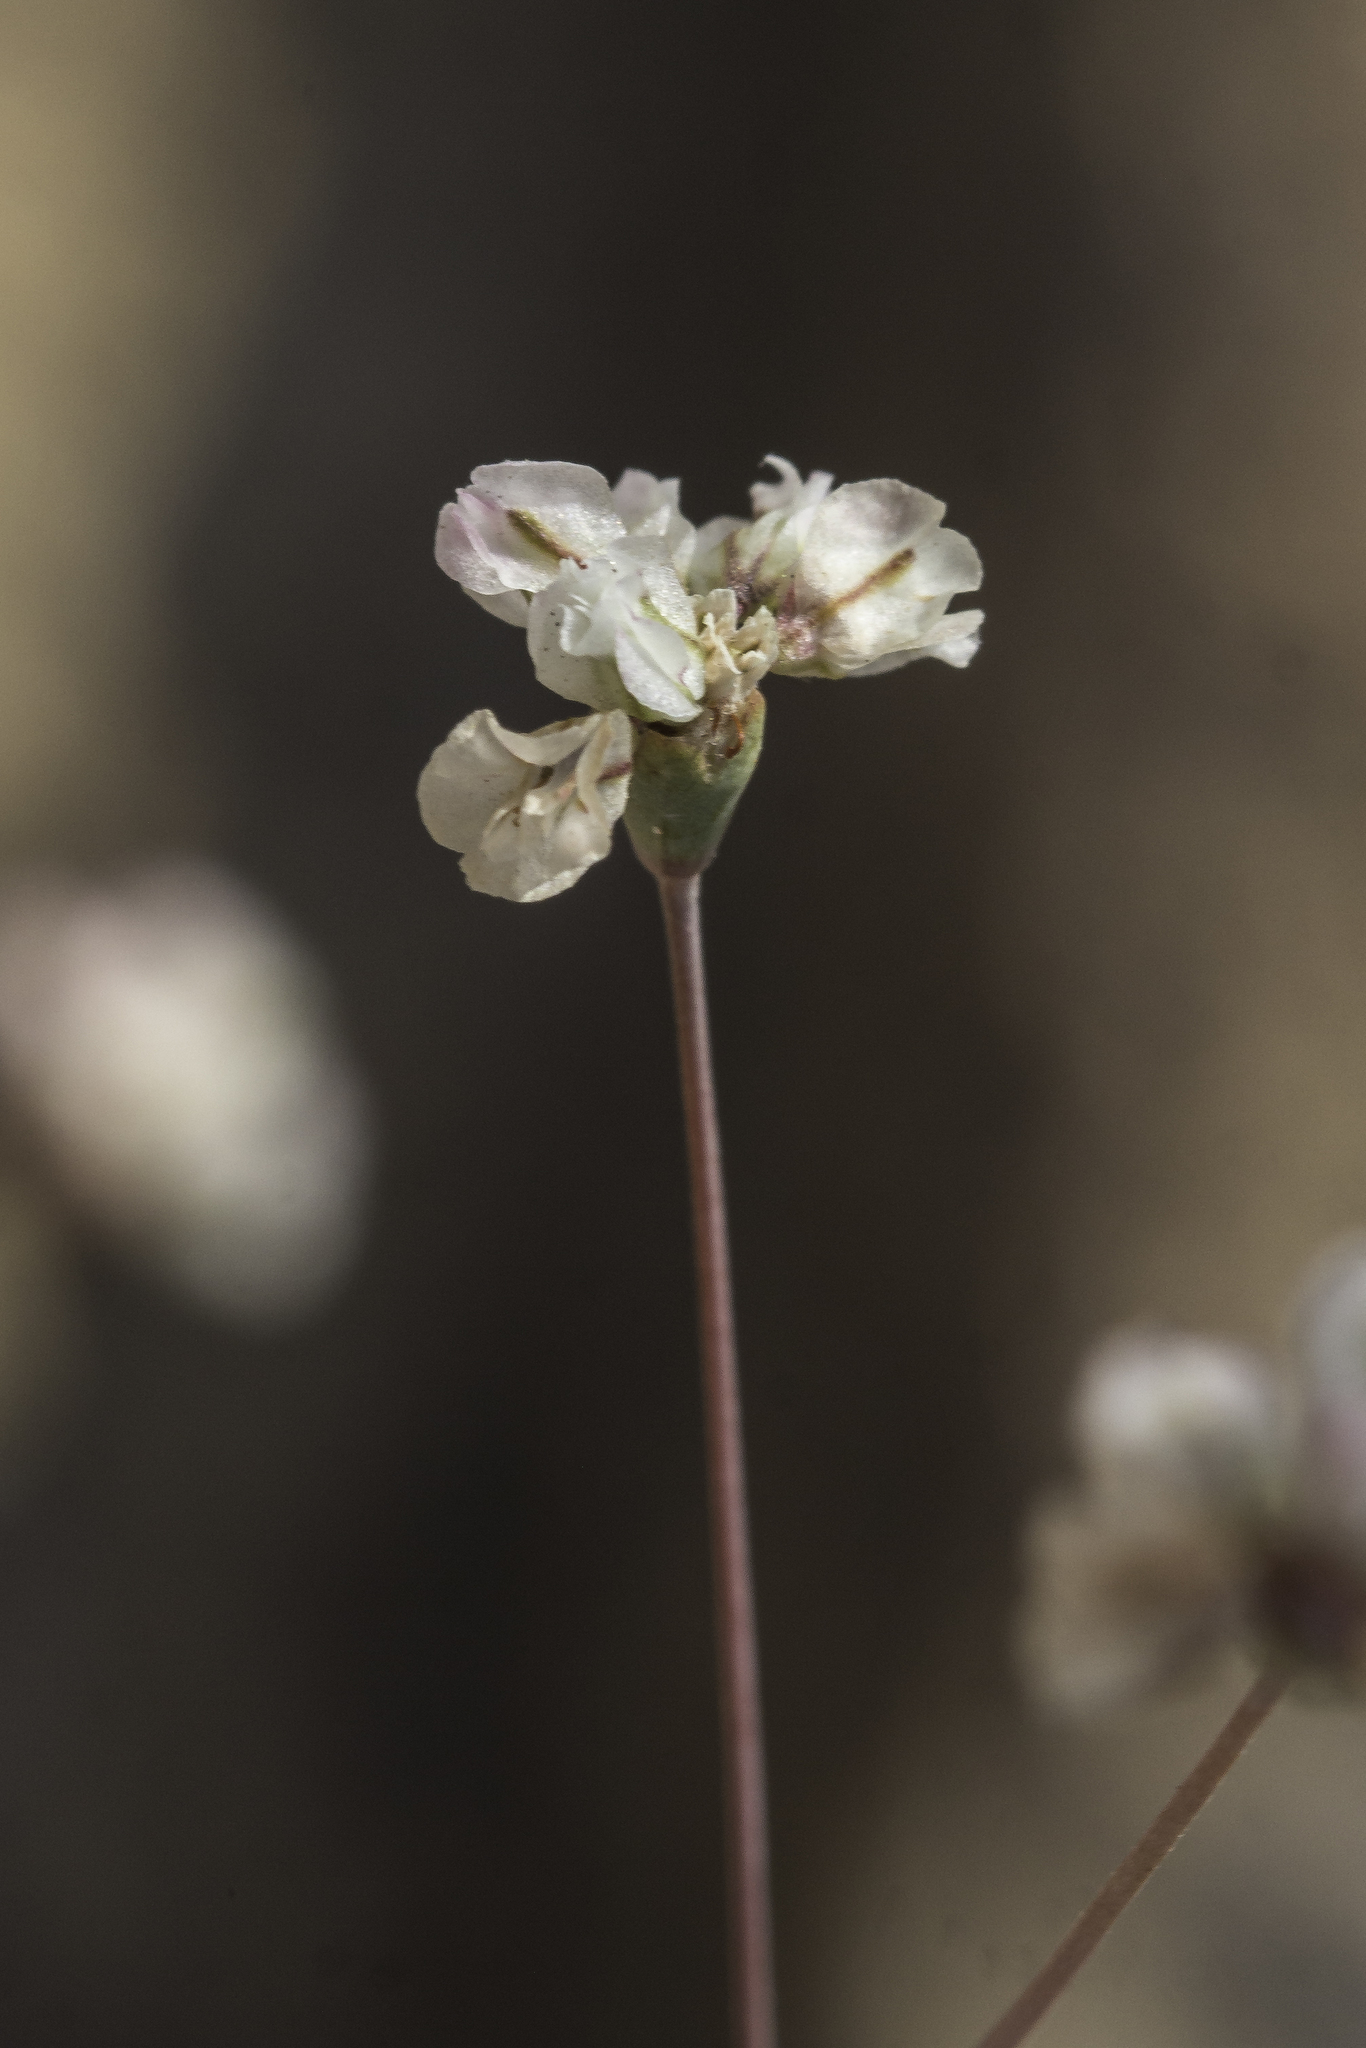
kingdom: Plantae
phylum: Tracheophyta
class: Magnoliopsida
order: Caryophyllales
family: Polygonaceae
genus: Eriogonum
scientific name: Eriogonum tenellum
